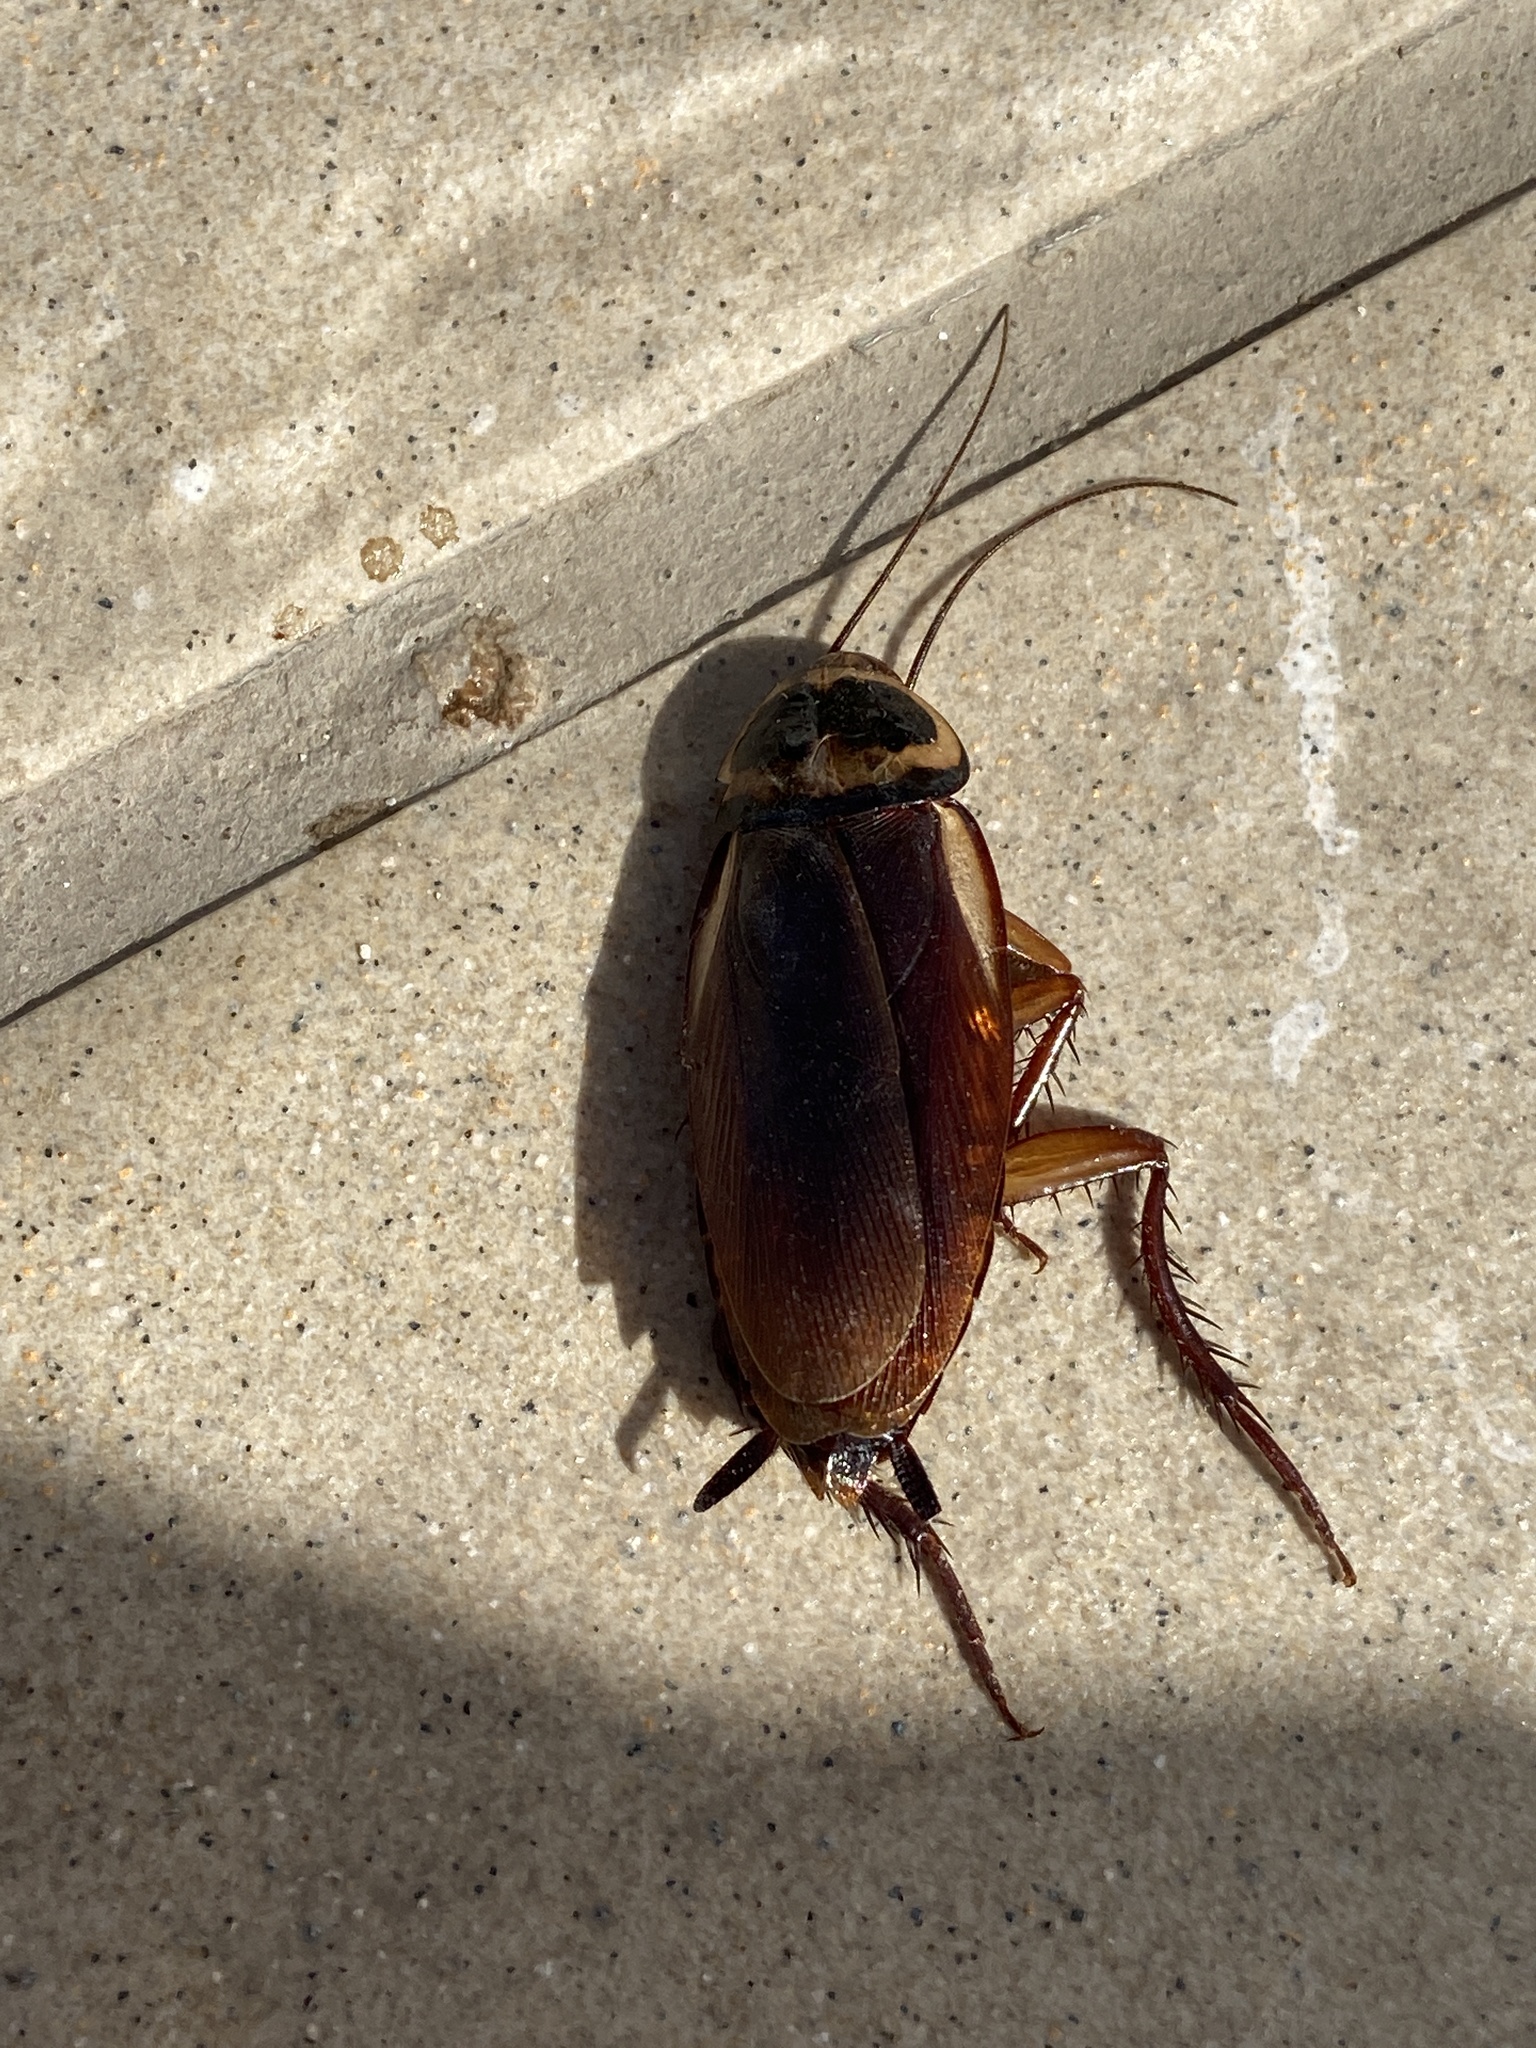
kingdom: Animalia
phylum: Arthropoda
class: Insecta
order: Blattodea
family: Blattidae
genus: Periplaneta
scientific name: Periplaneta australasiae
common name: Australian cockroach
